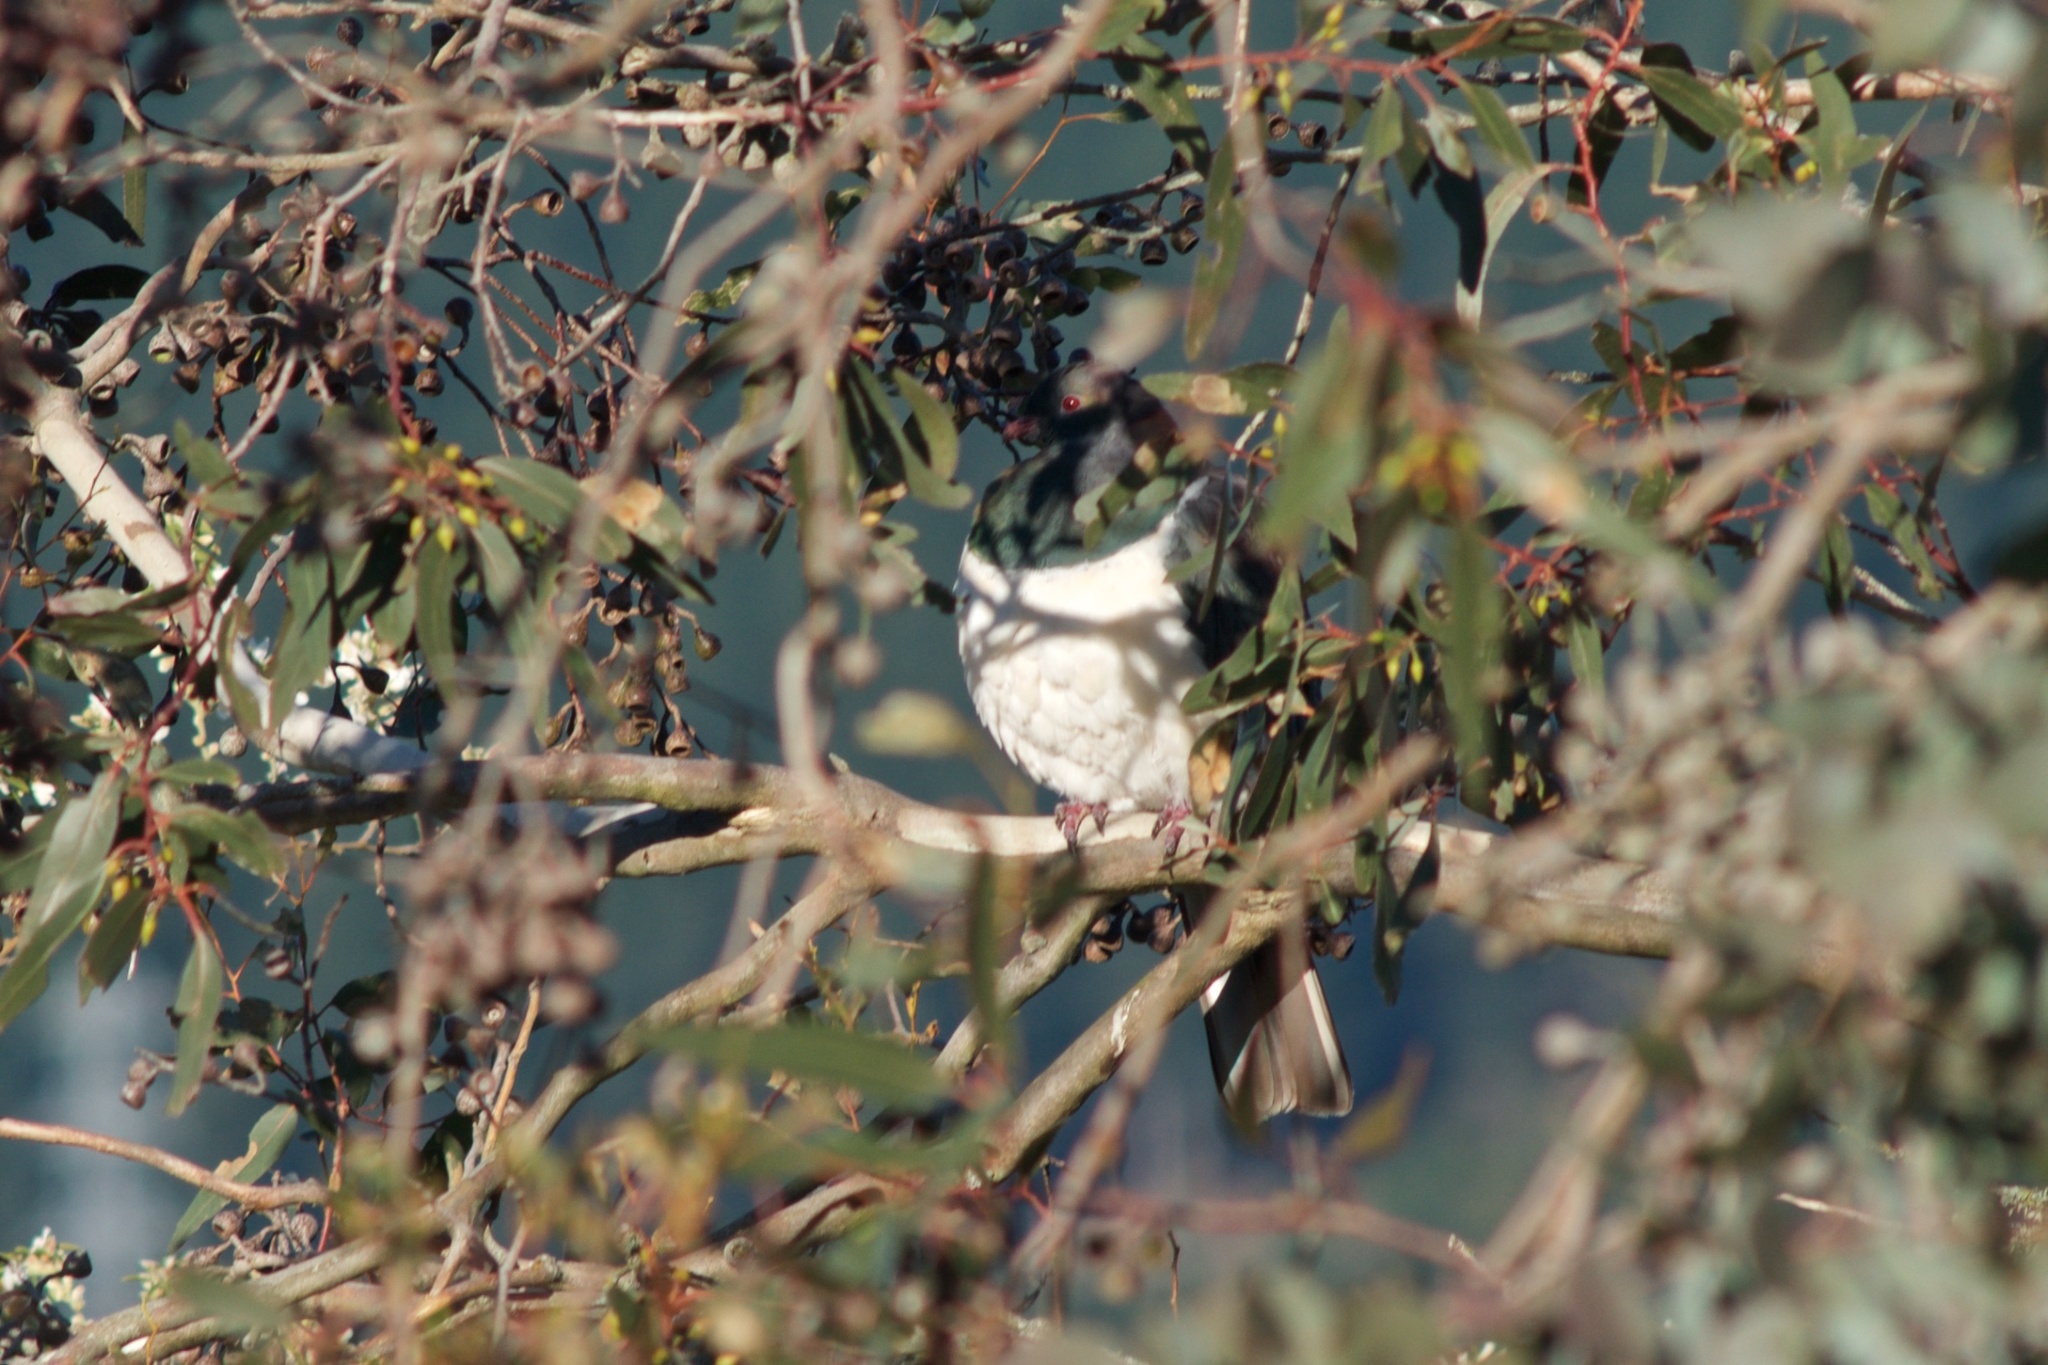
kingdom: Animalia
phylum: Chordata
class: Aves
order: Columbiformes
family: Columbidae
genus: Hemiphaga
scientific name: Hemiphaga novaeseelandiae
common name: New zealand pigeon
